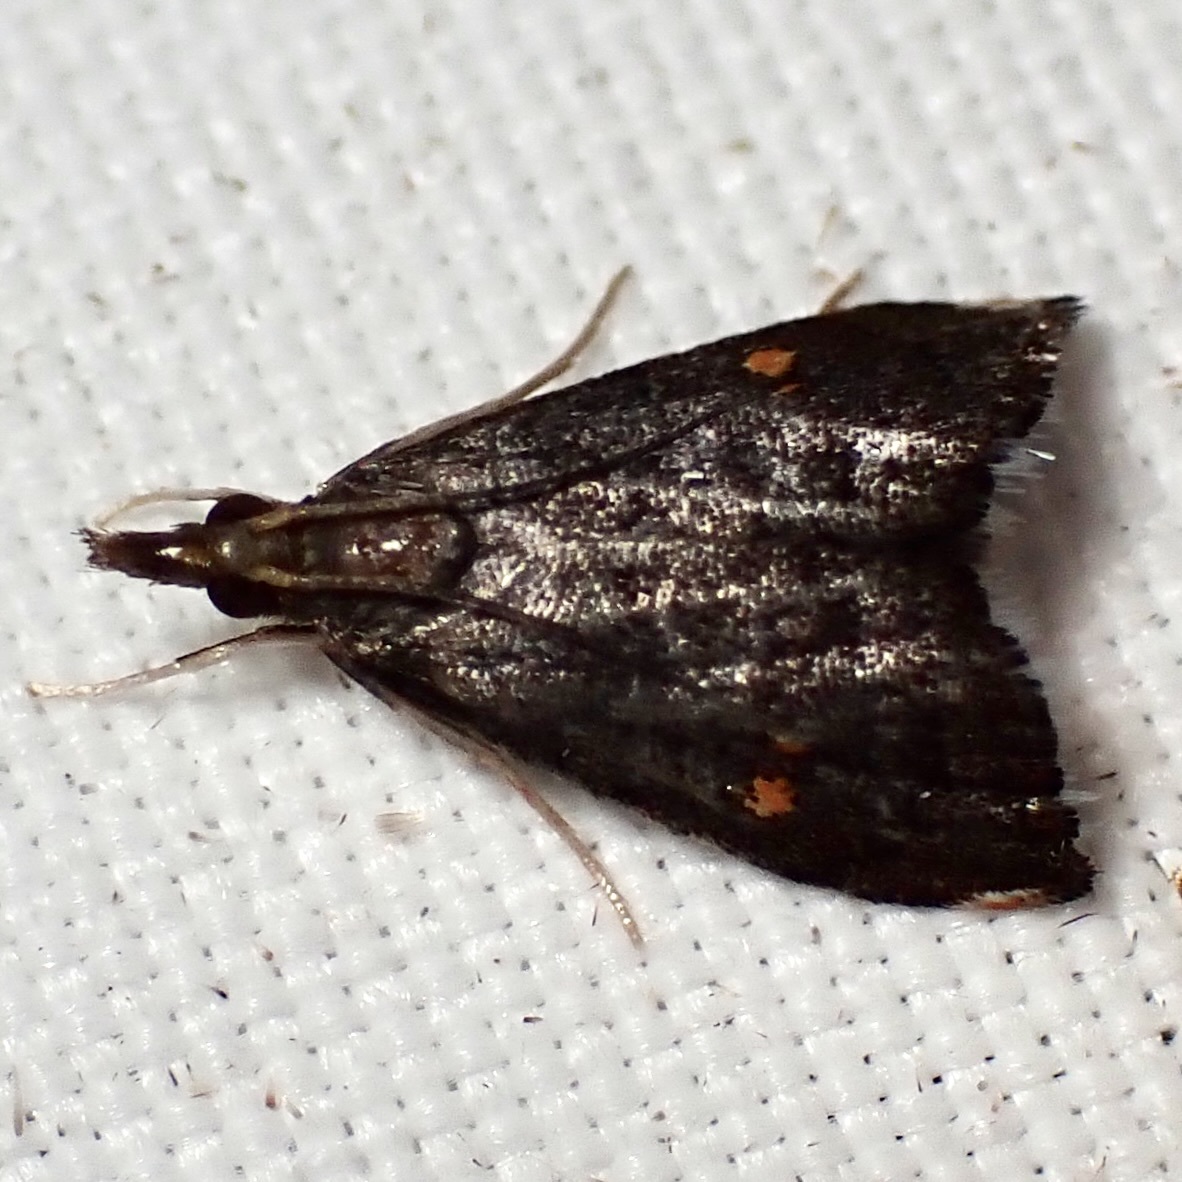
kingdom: Animalia
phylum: Arthropoda
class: Insecta
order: Lepidoptera
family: Crambidae
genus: Microcausta
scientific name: Microcausta bipunctalis
